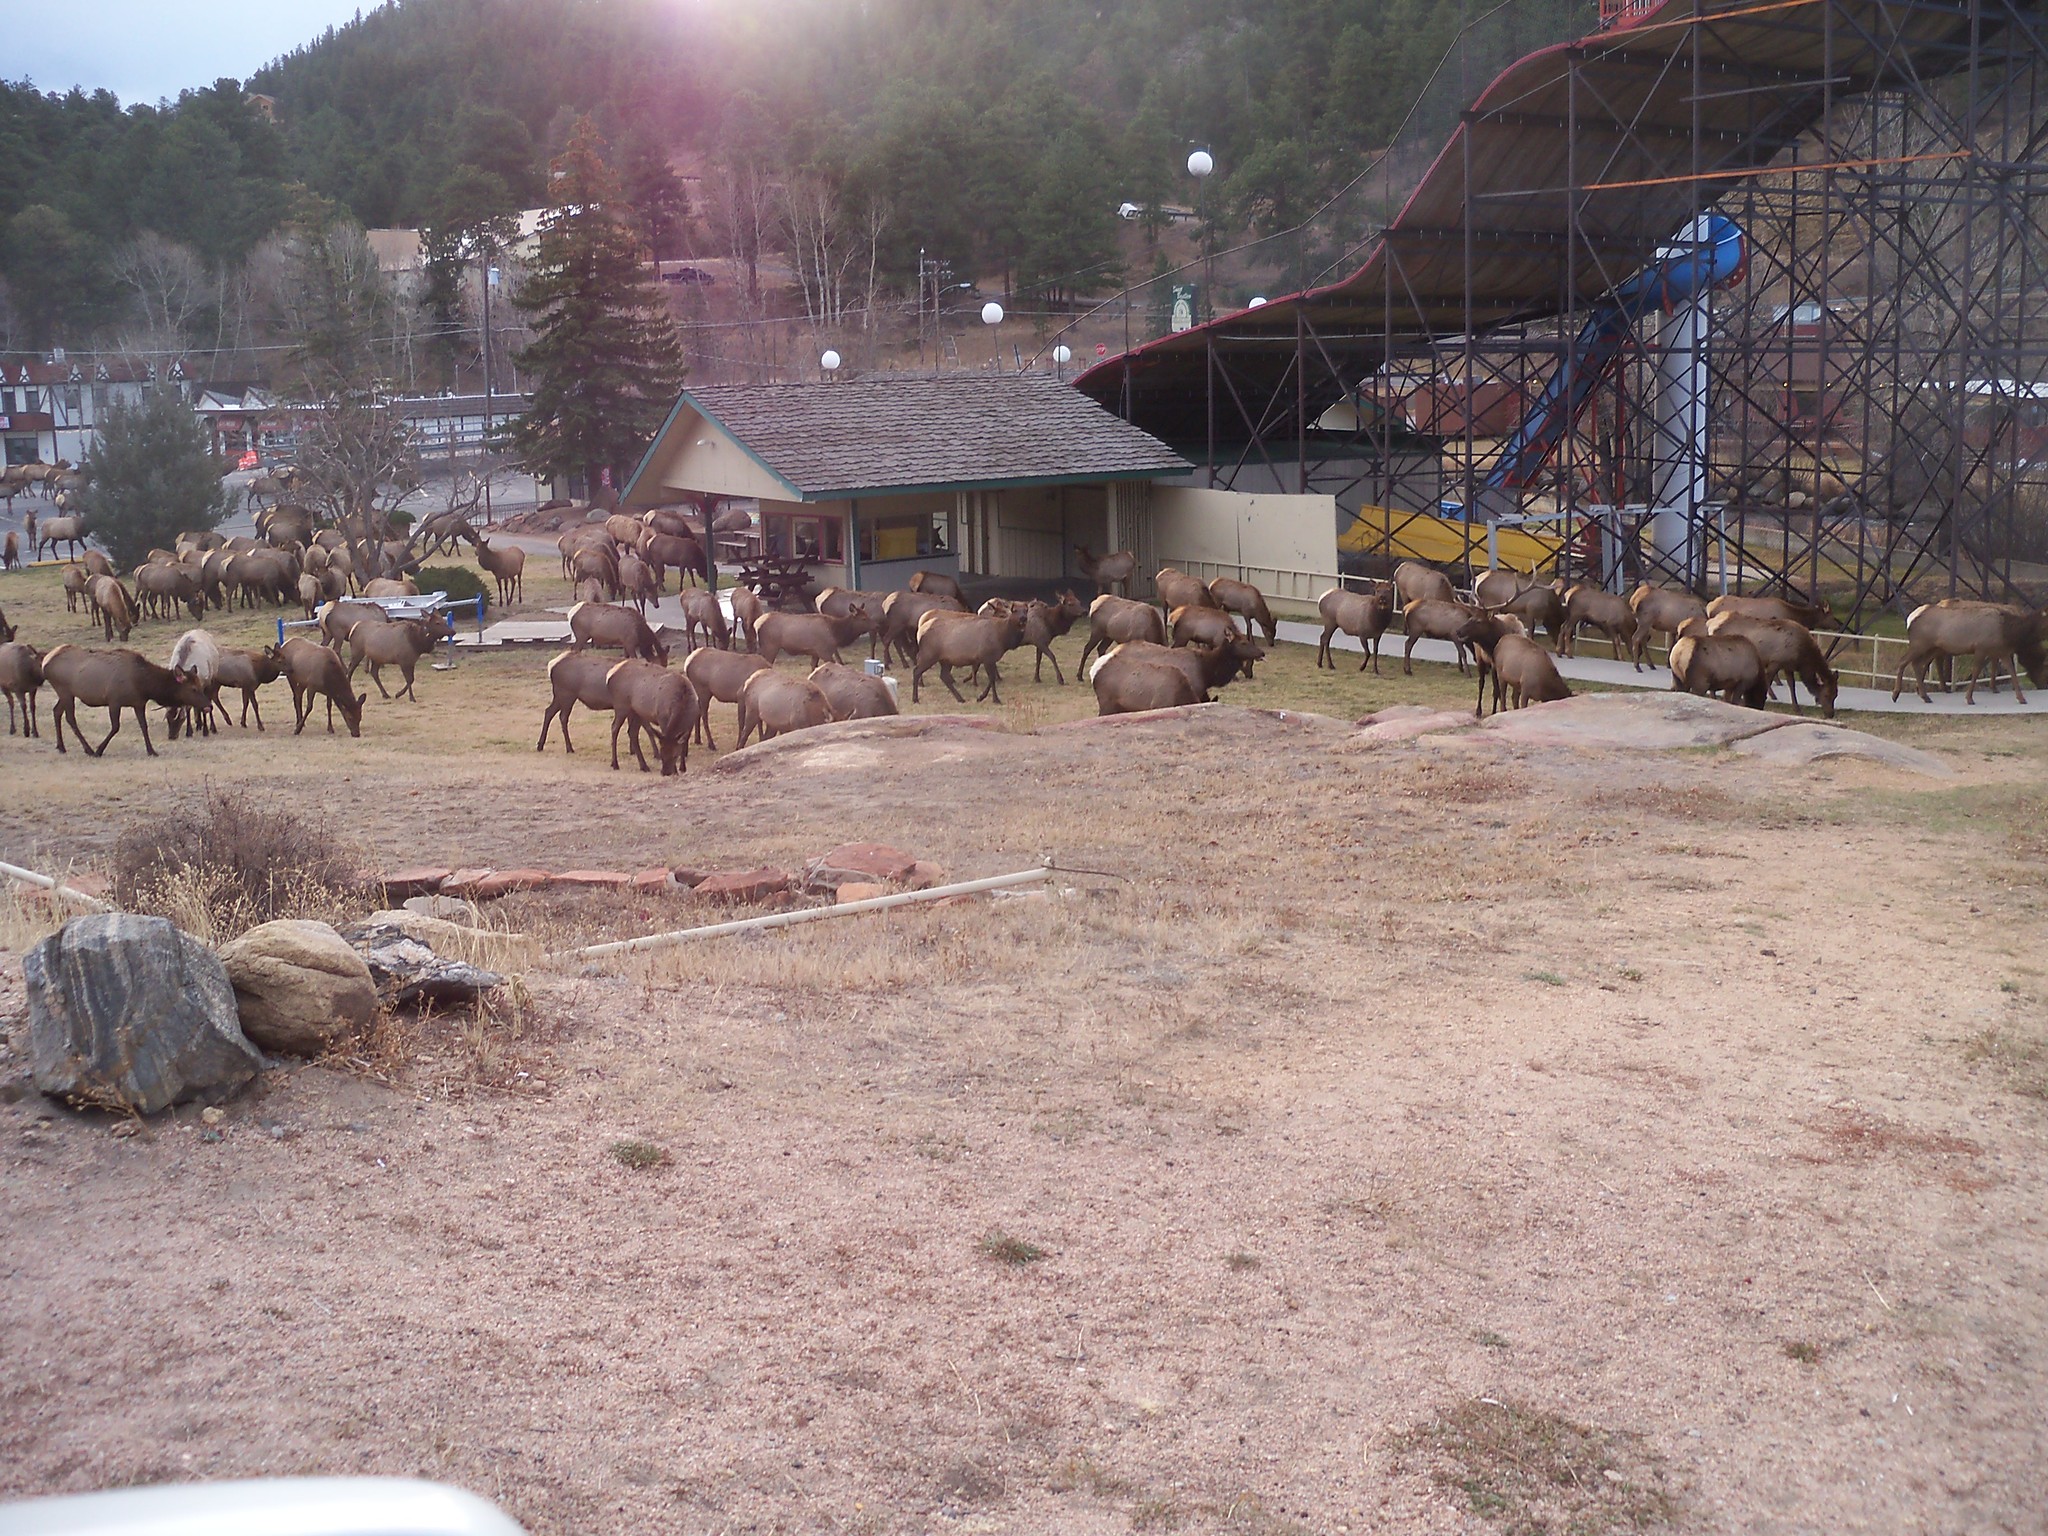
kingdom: Animalia
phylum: Chordata
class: Mammalia
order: Artiodactyla
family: Cervidae
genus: Cervus
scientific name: Cervus elaphus
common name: Red deer
